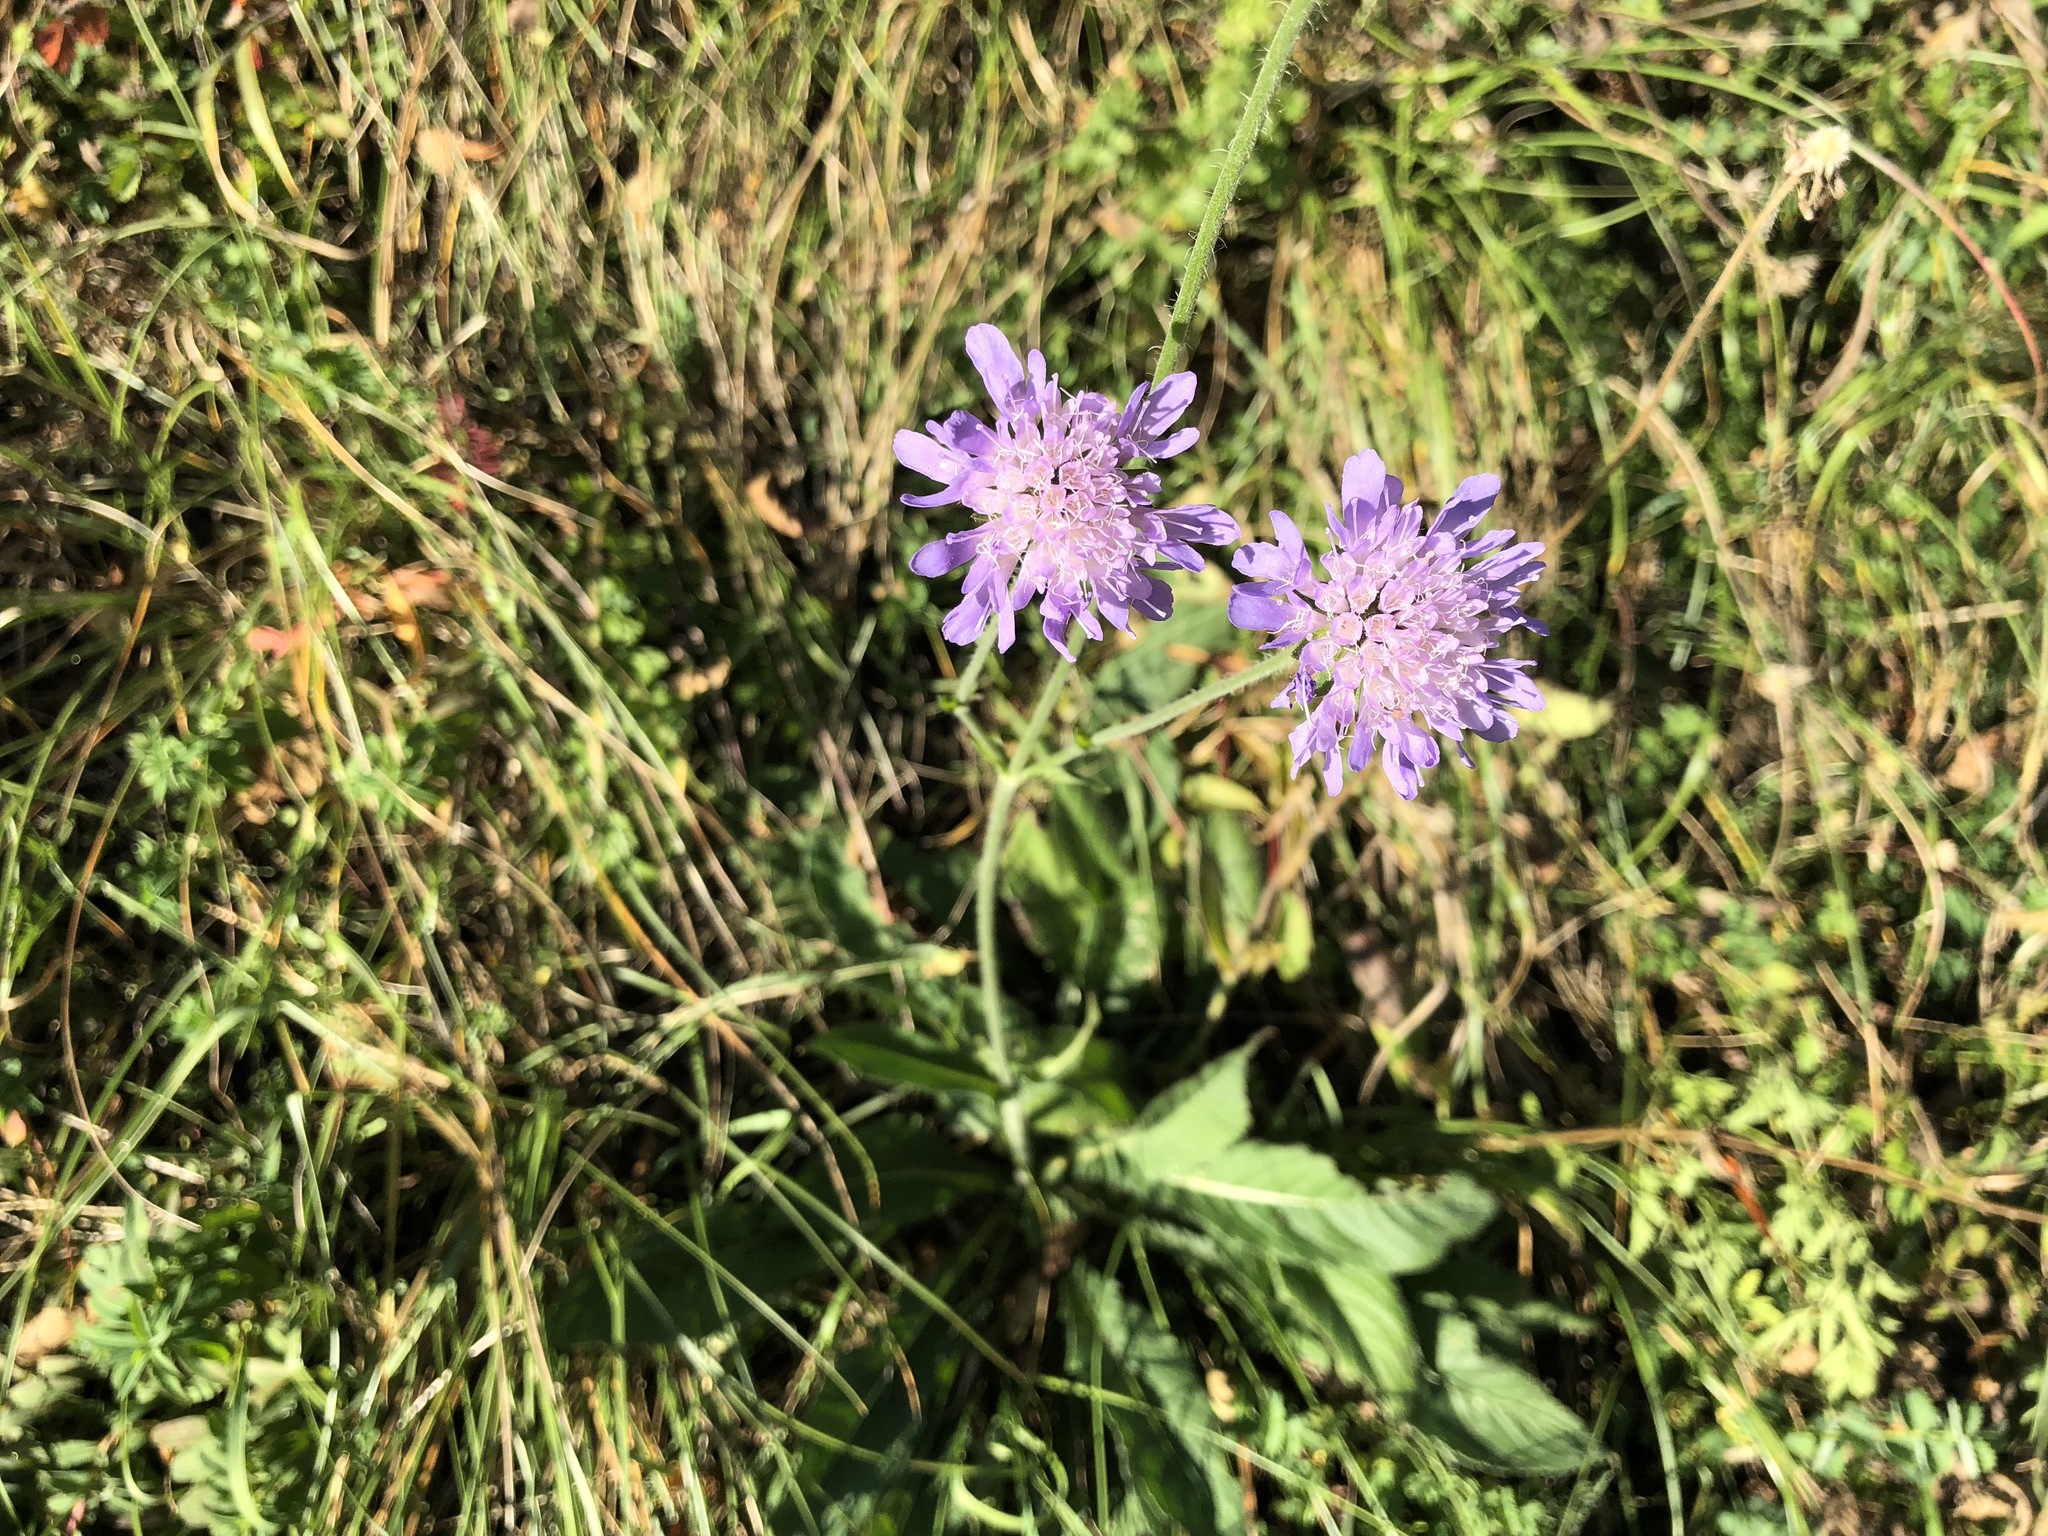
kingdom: Plantae
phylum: Tracheophyta
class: Magnoliopsida
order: Dipsacales
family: Caprifoliaceae
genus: Knautia
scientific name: Knautia dipsacifolia
